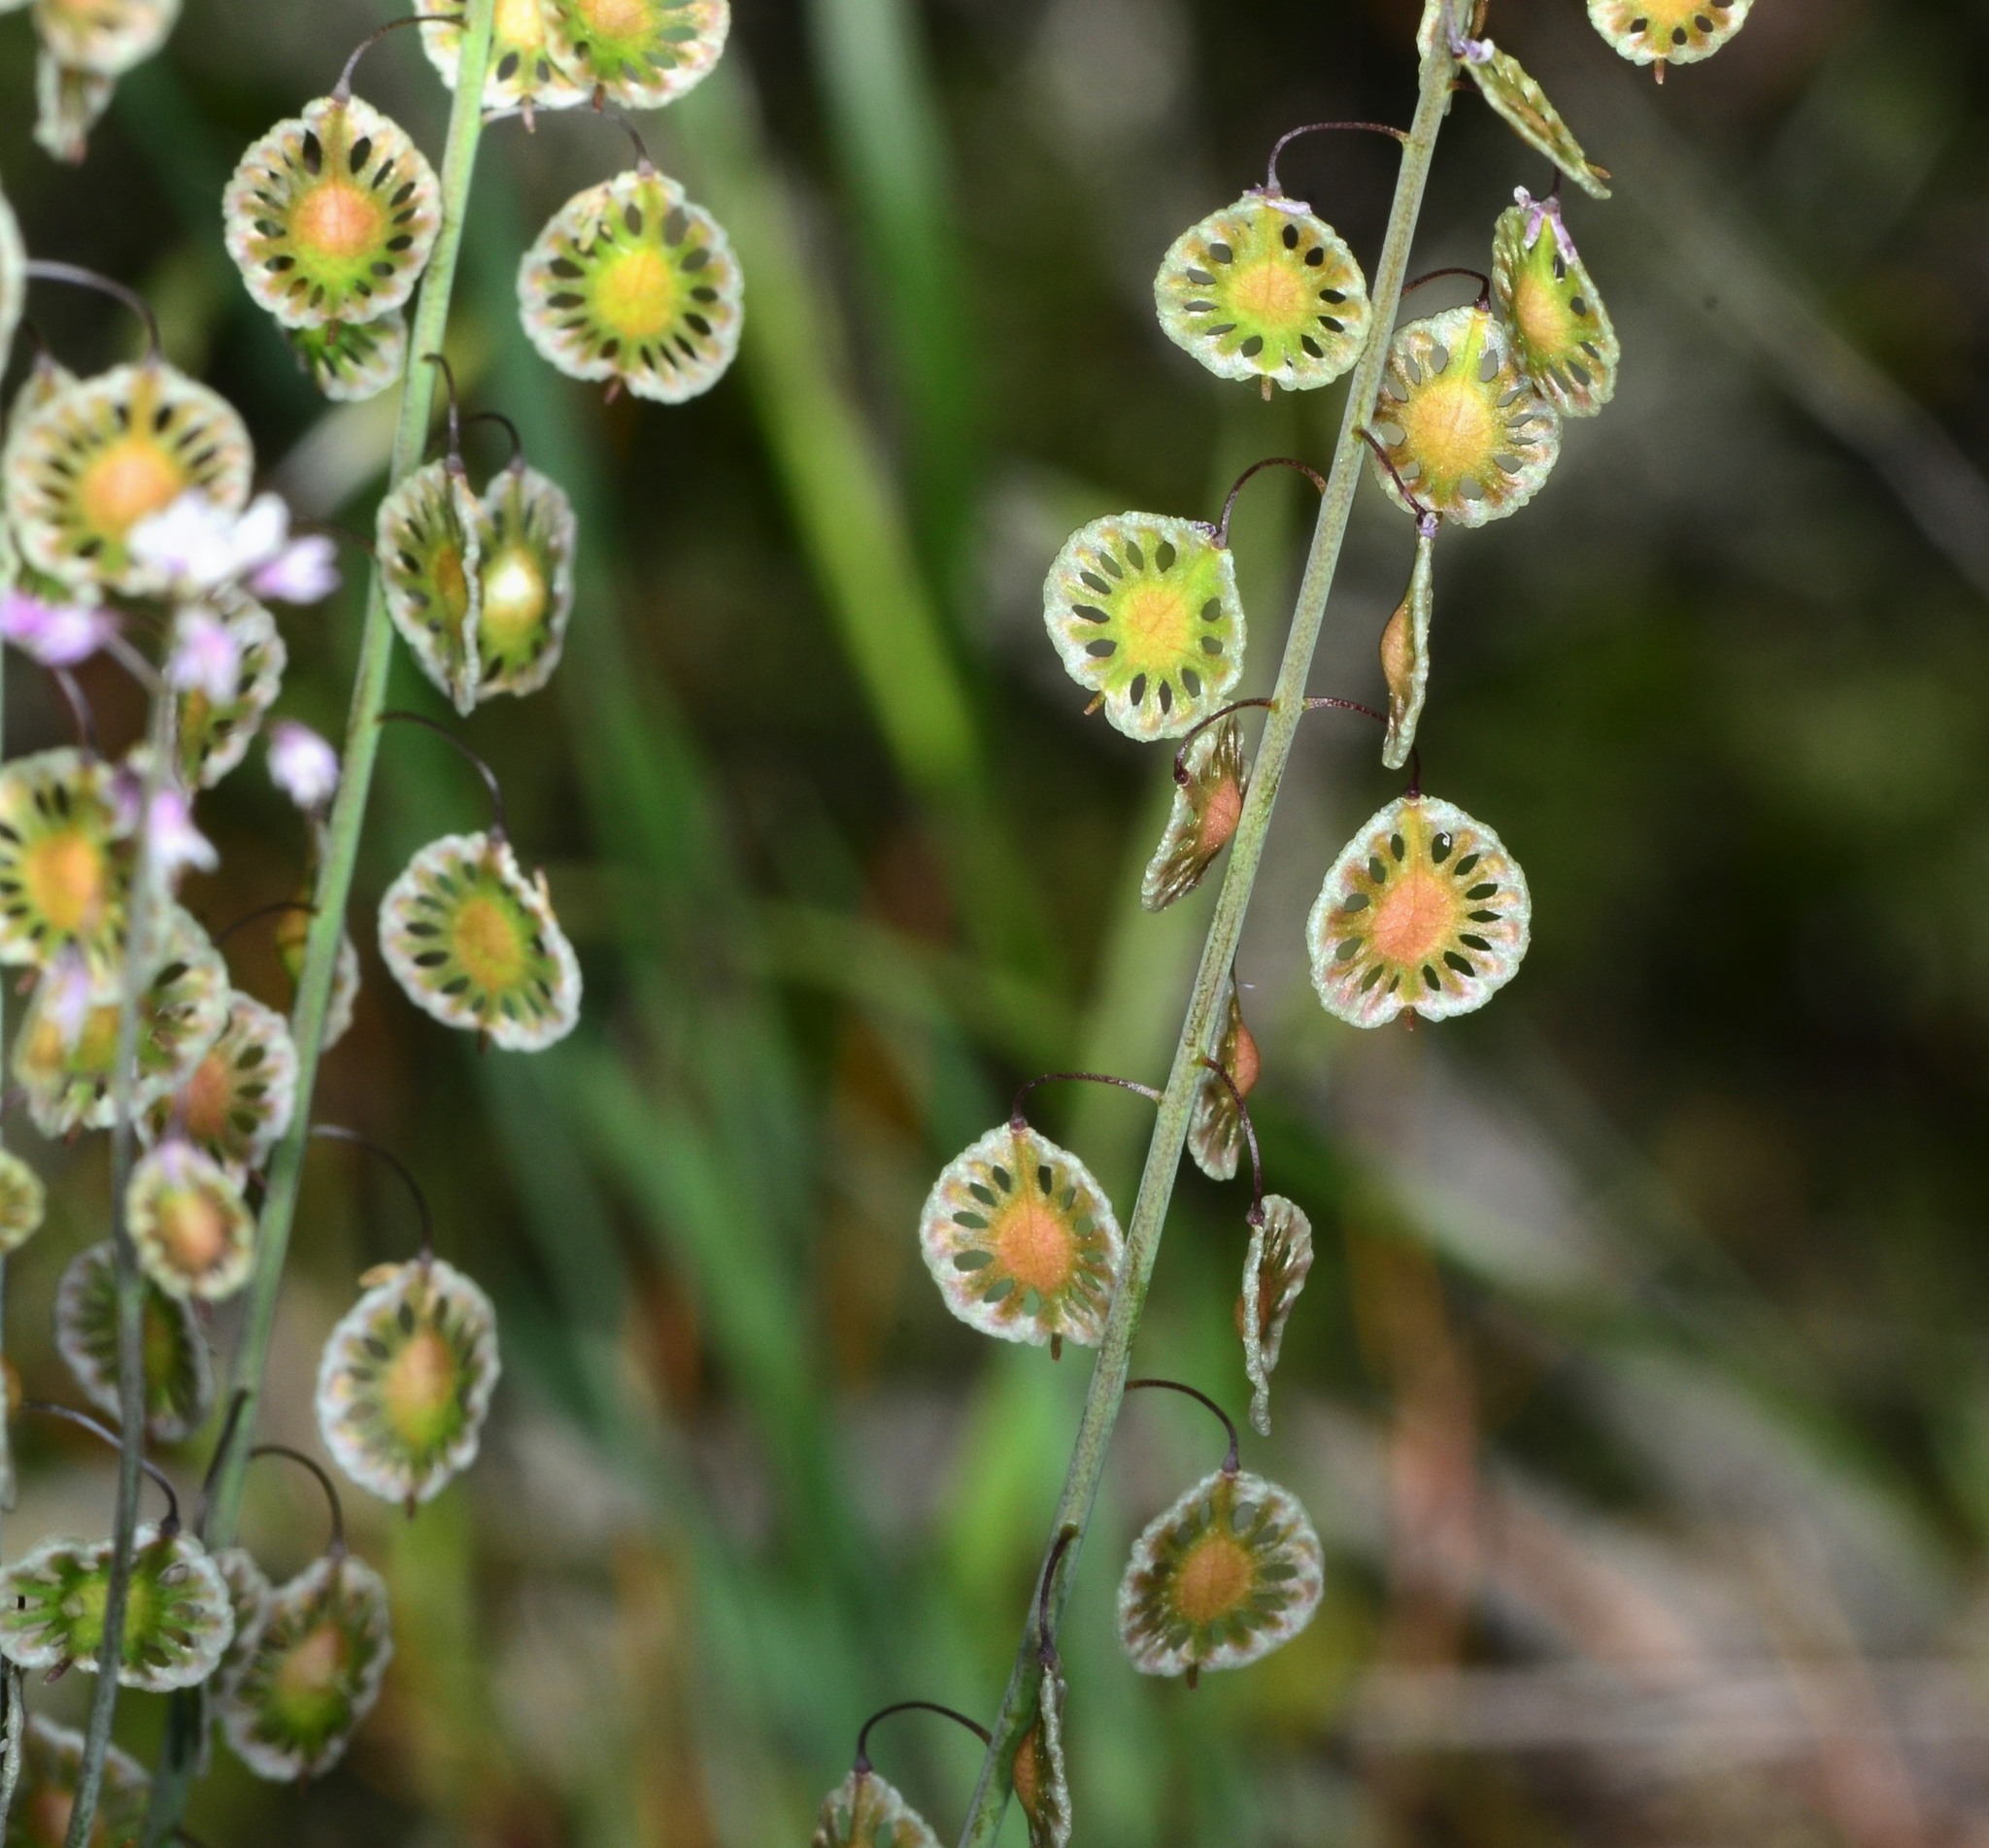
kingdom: Plantae
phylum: Tracheophyta
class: Magnoliopsida
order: Brassicales
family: Brassicaceae
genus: Thysanocarpus
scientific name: Thysanocarpus curvipes
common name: Sand fringepod
